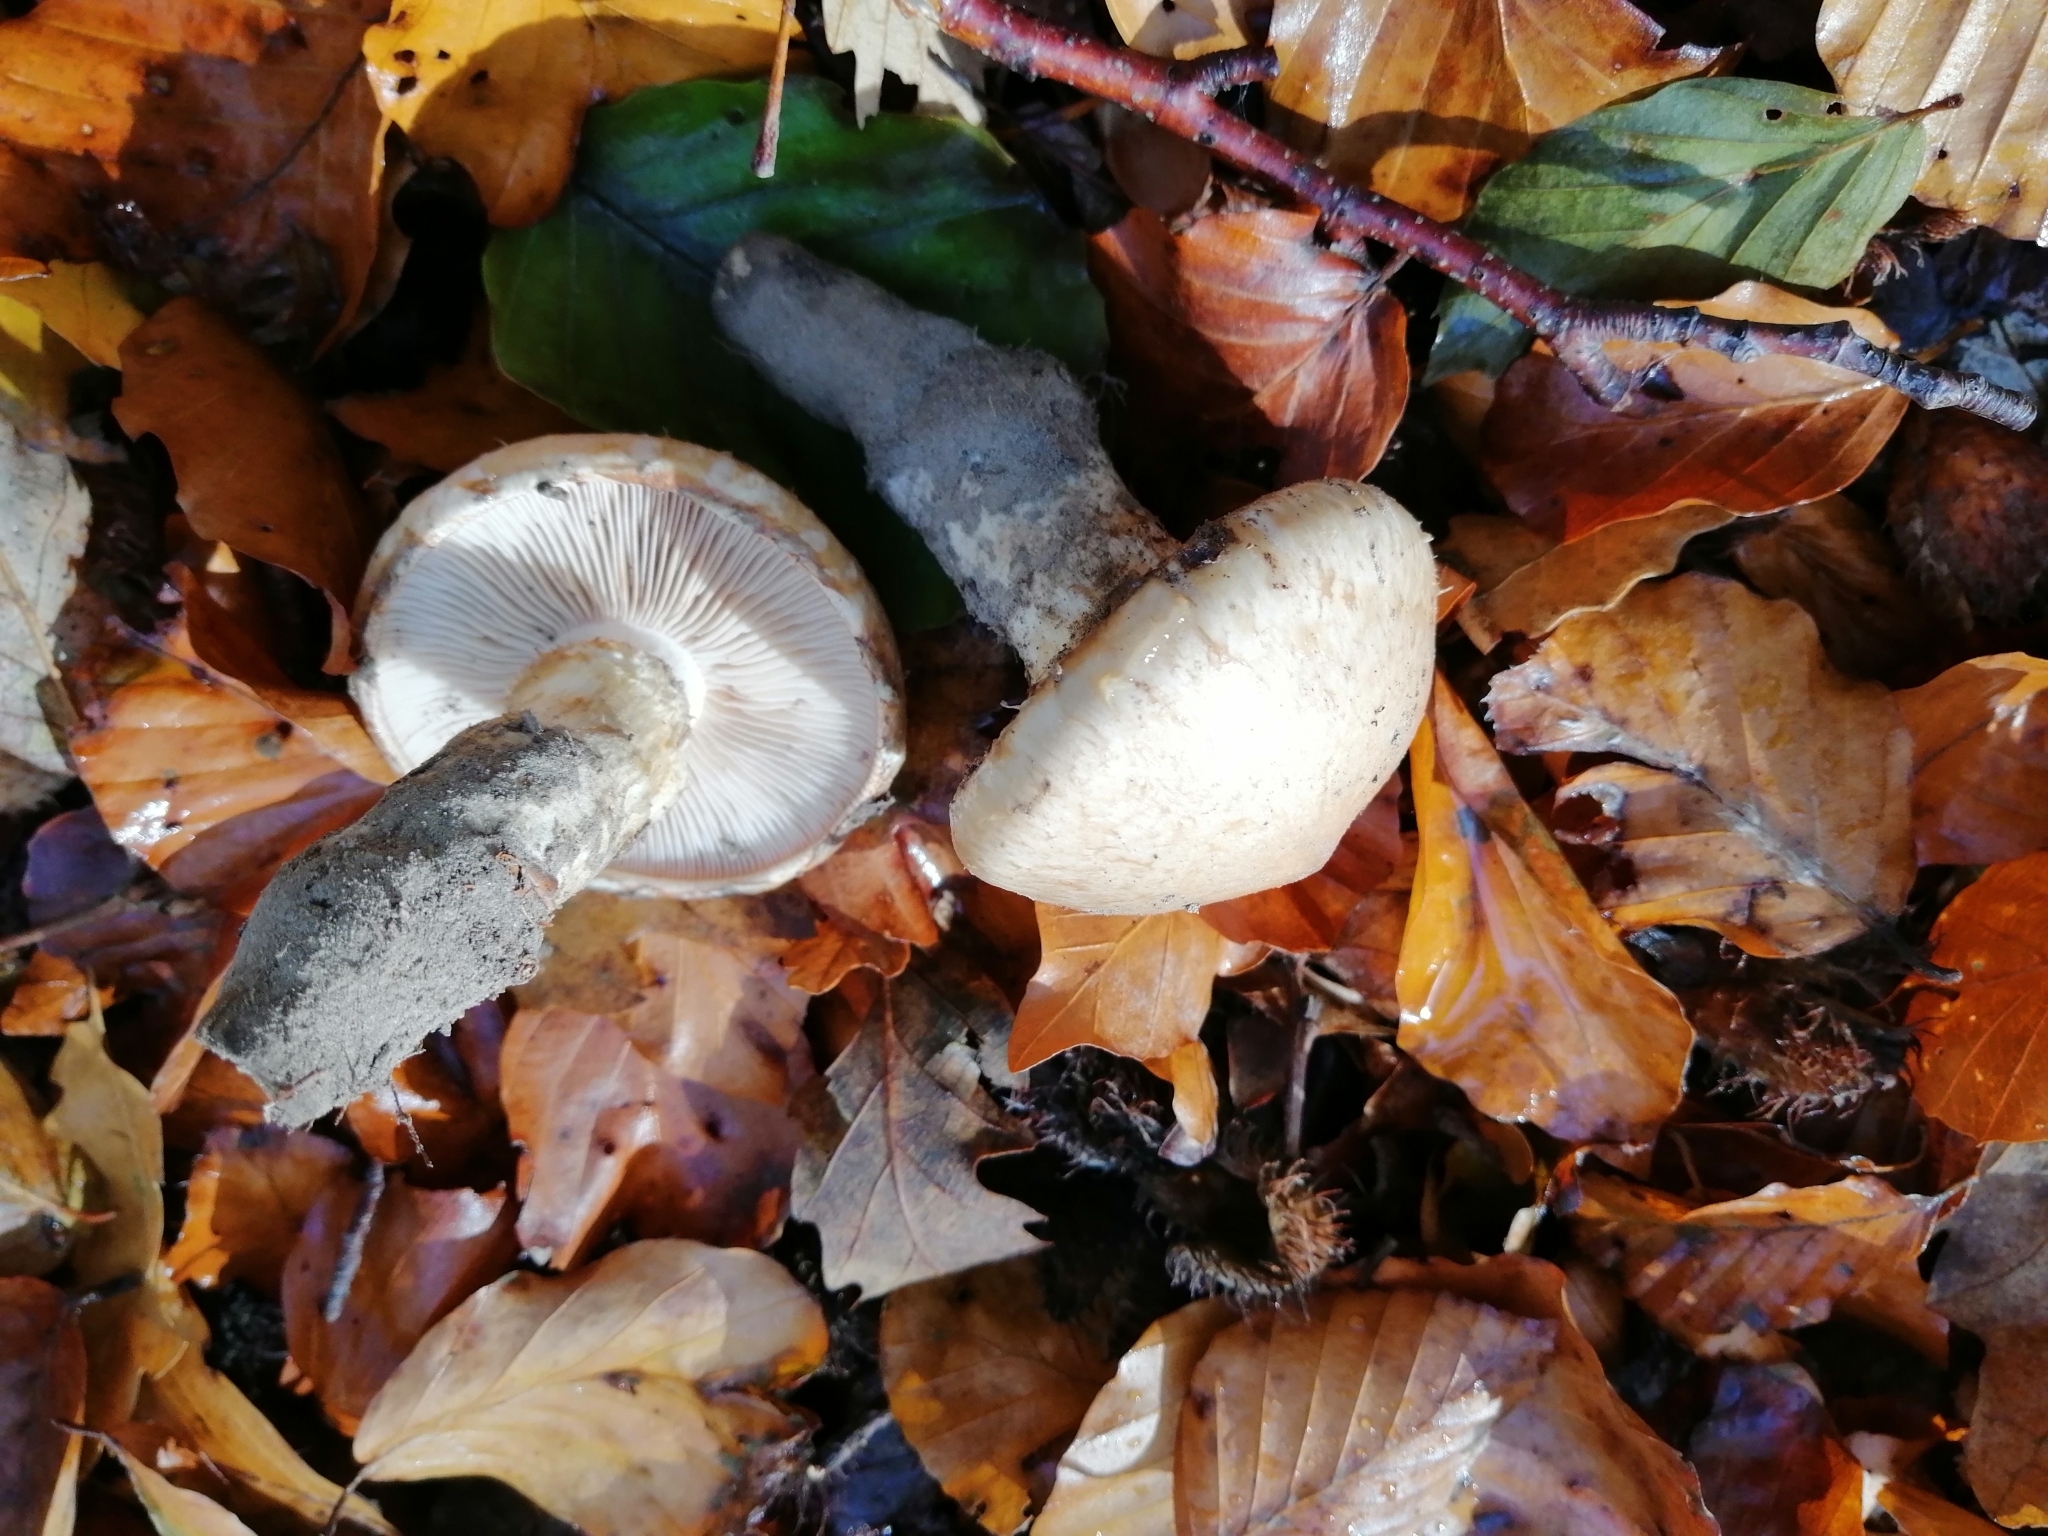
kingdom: Fungi
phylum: Basidiomycota
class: Agaricomycetes
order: Agaricales
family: Hymenogastraceae
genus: Hebeloma
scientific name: Hebeloma radicosum
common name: Rooting poisonpie
